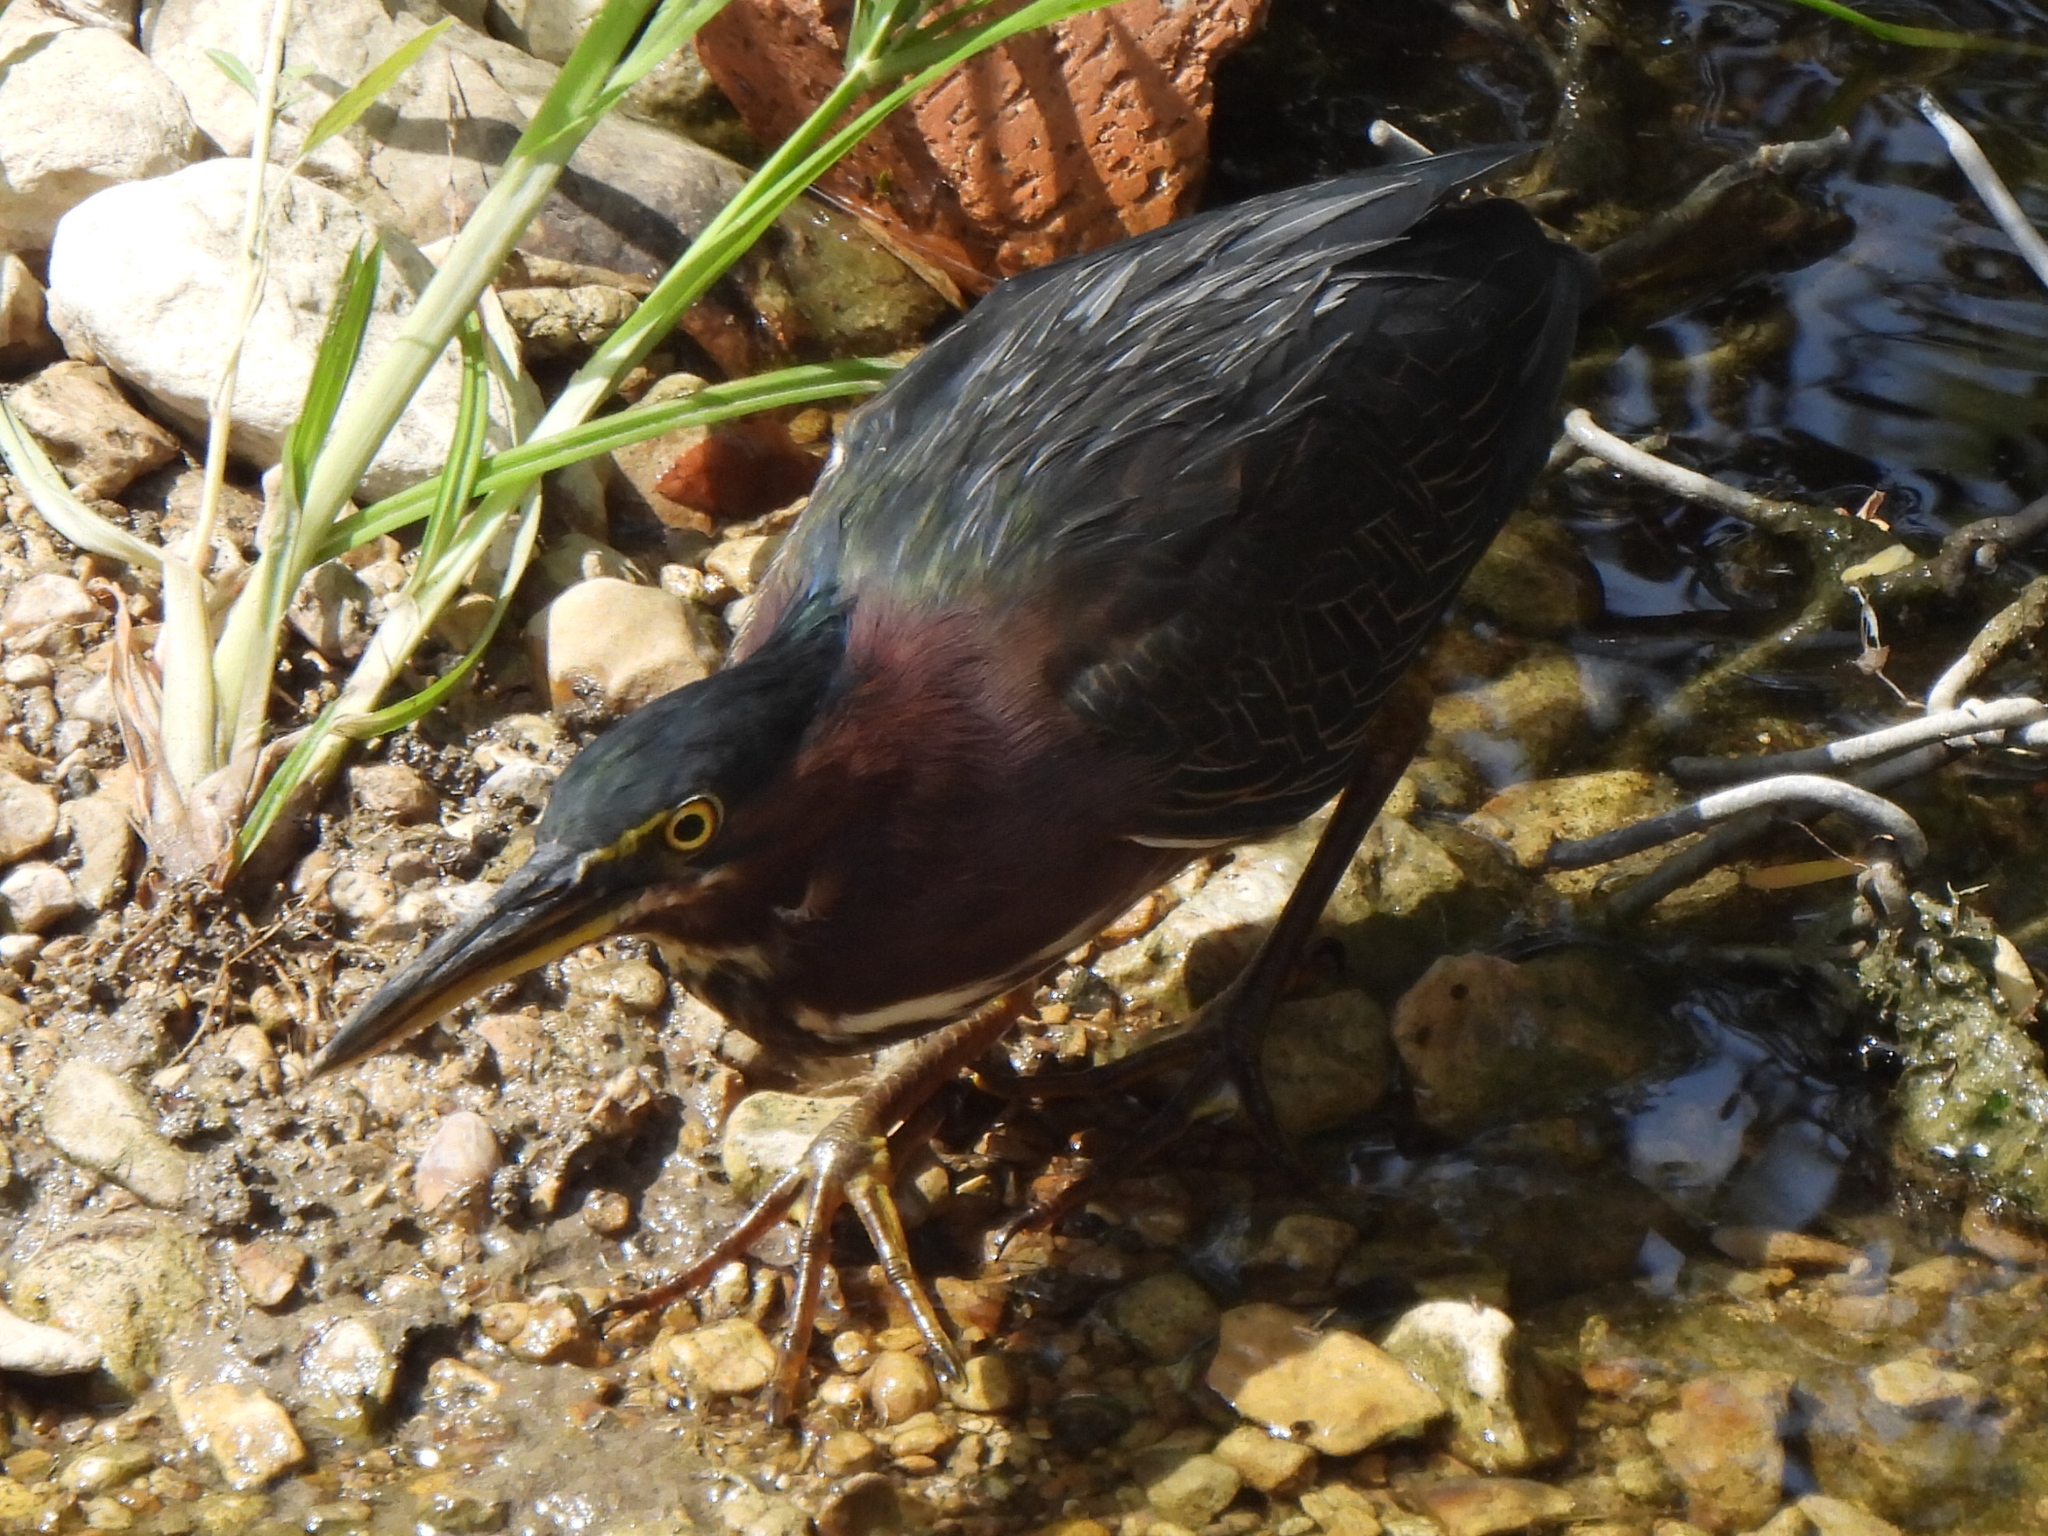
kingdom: Animalia
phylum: Chordata
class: Aves
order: Pelecaniformes
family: Ardeidae
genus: Butorides
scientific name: Butorides virescens
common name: Green heron
